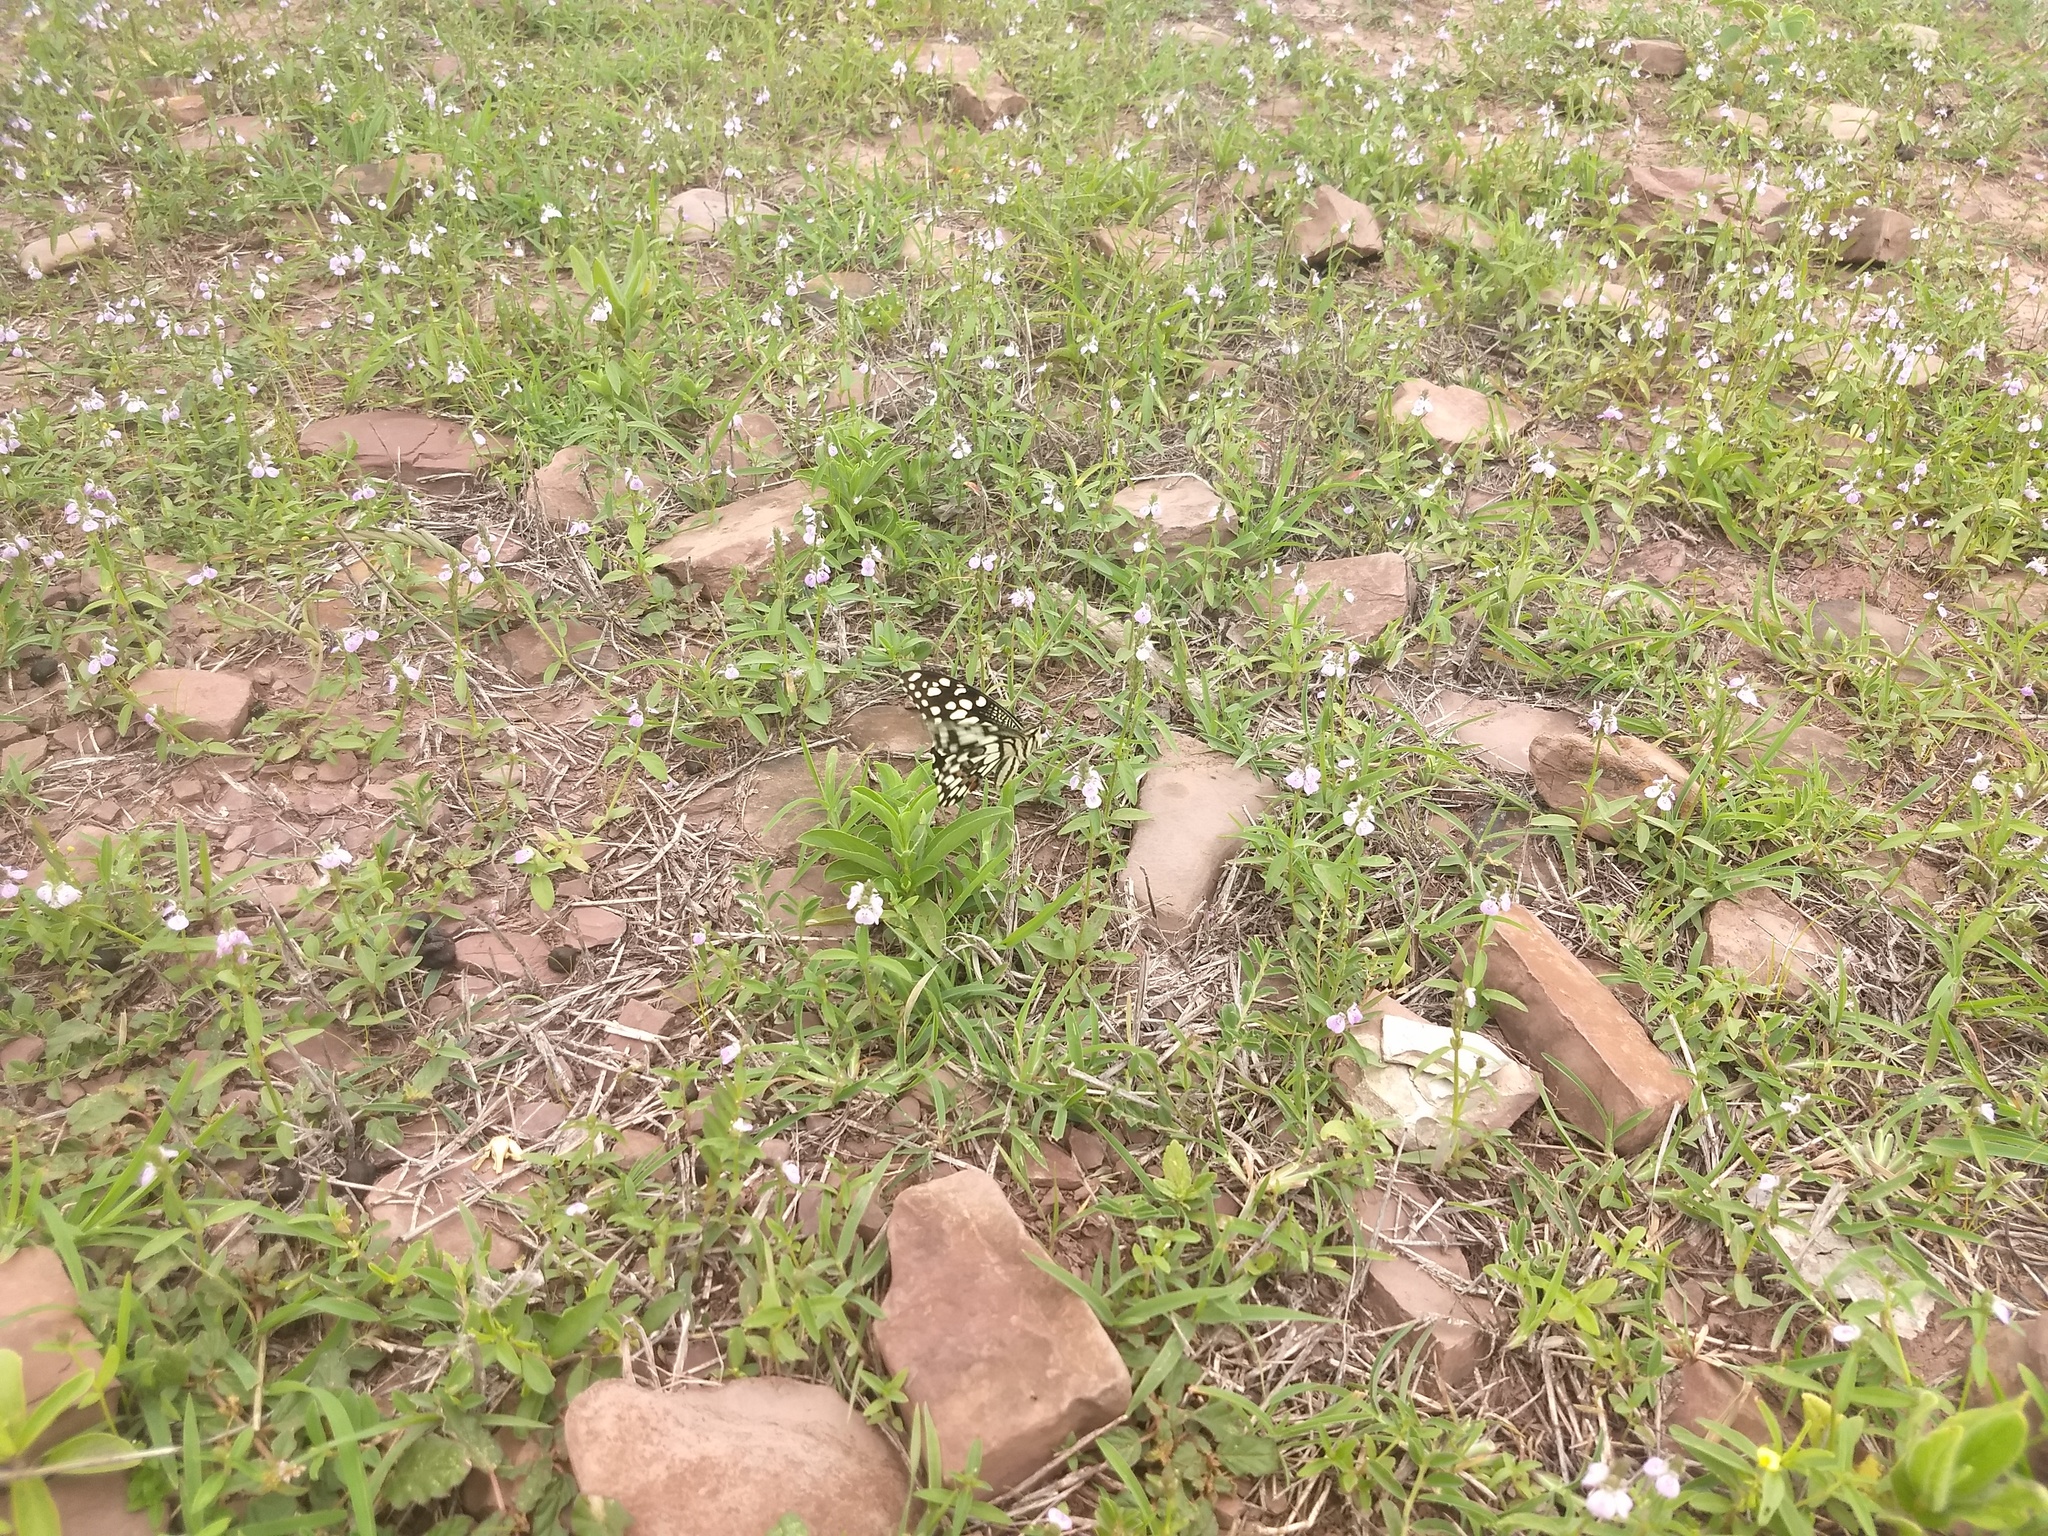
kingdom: Animalia
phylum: Arthropoda
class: Insecta
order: Lepidoptera
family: Papilionidae
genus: Papilio
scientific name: Papilio demoleus
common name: Lime butterfly
